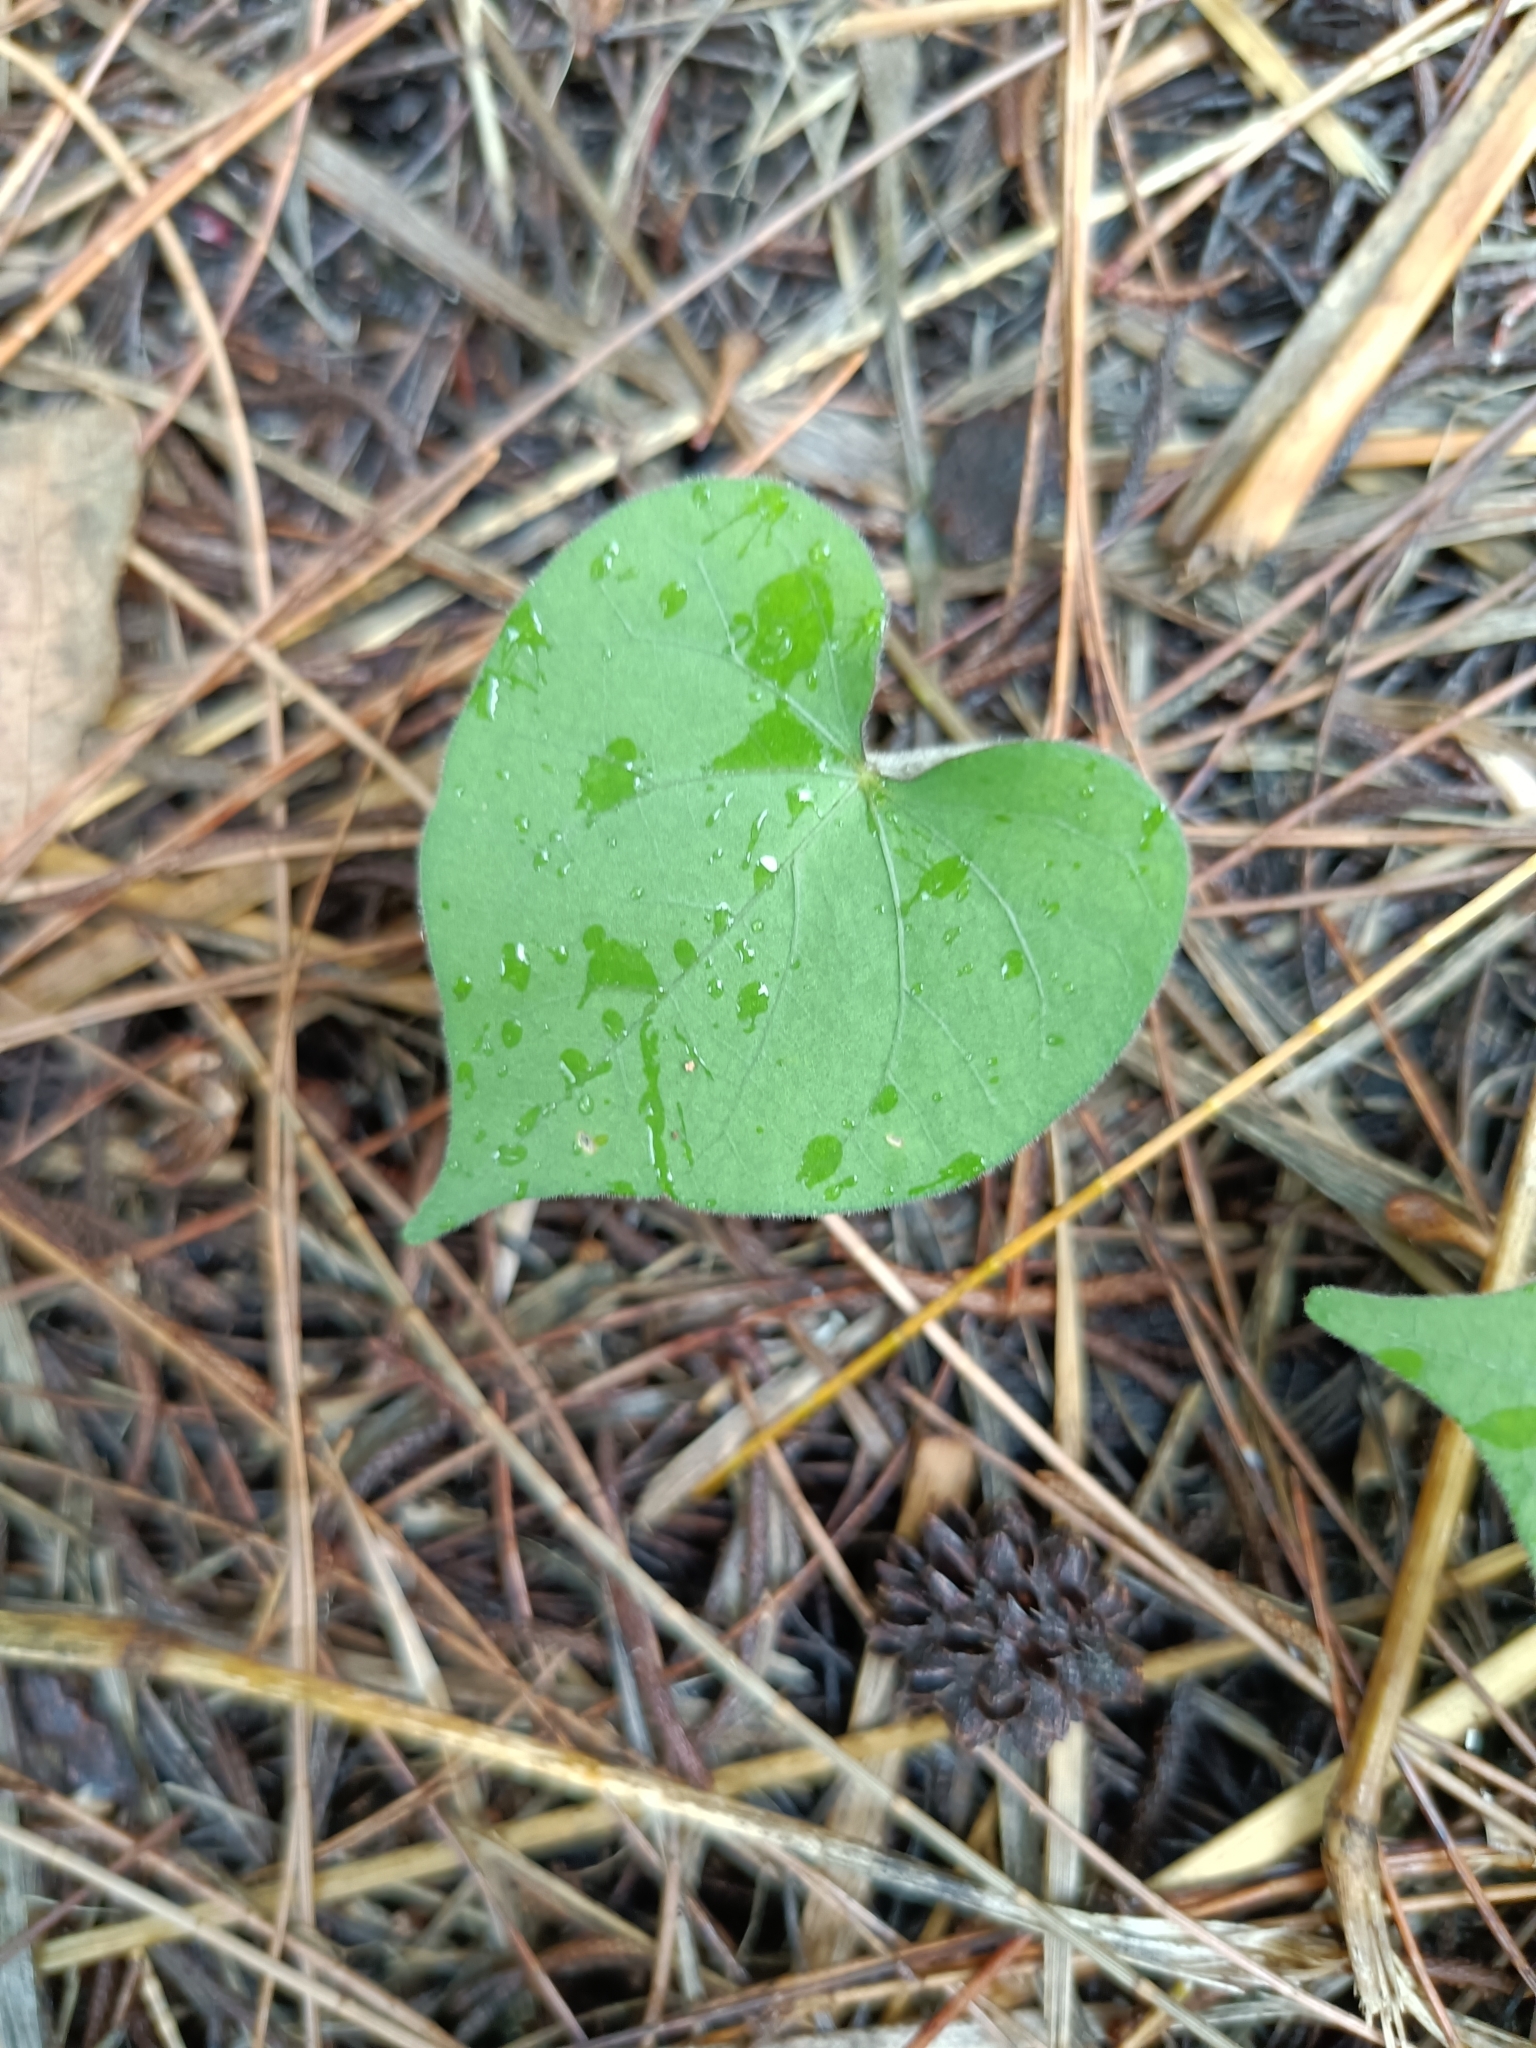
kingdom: Plantae
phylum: Tracheophyta
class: Magnoliopsida
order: Solanales
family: Convolvulaceae
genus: Ipomoea
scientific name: Ipomoea obscura
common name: Obscure morning-glory
